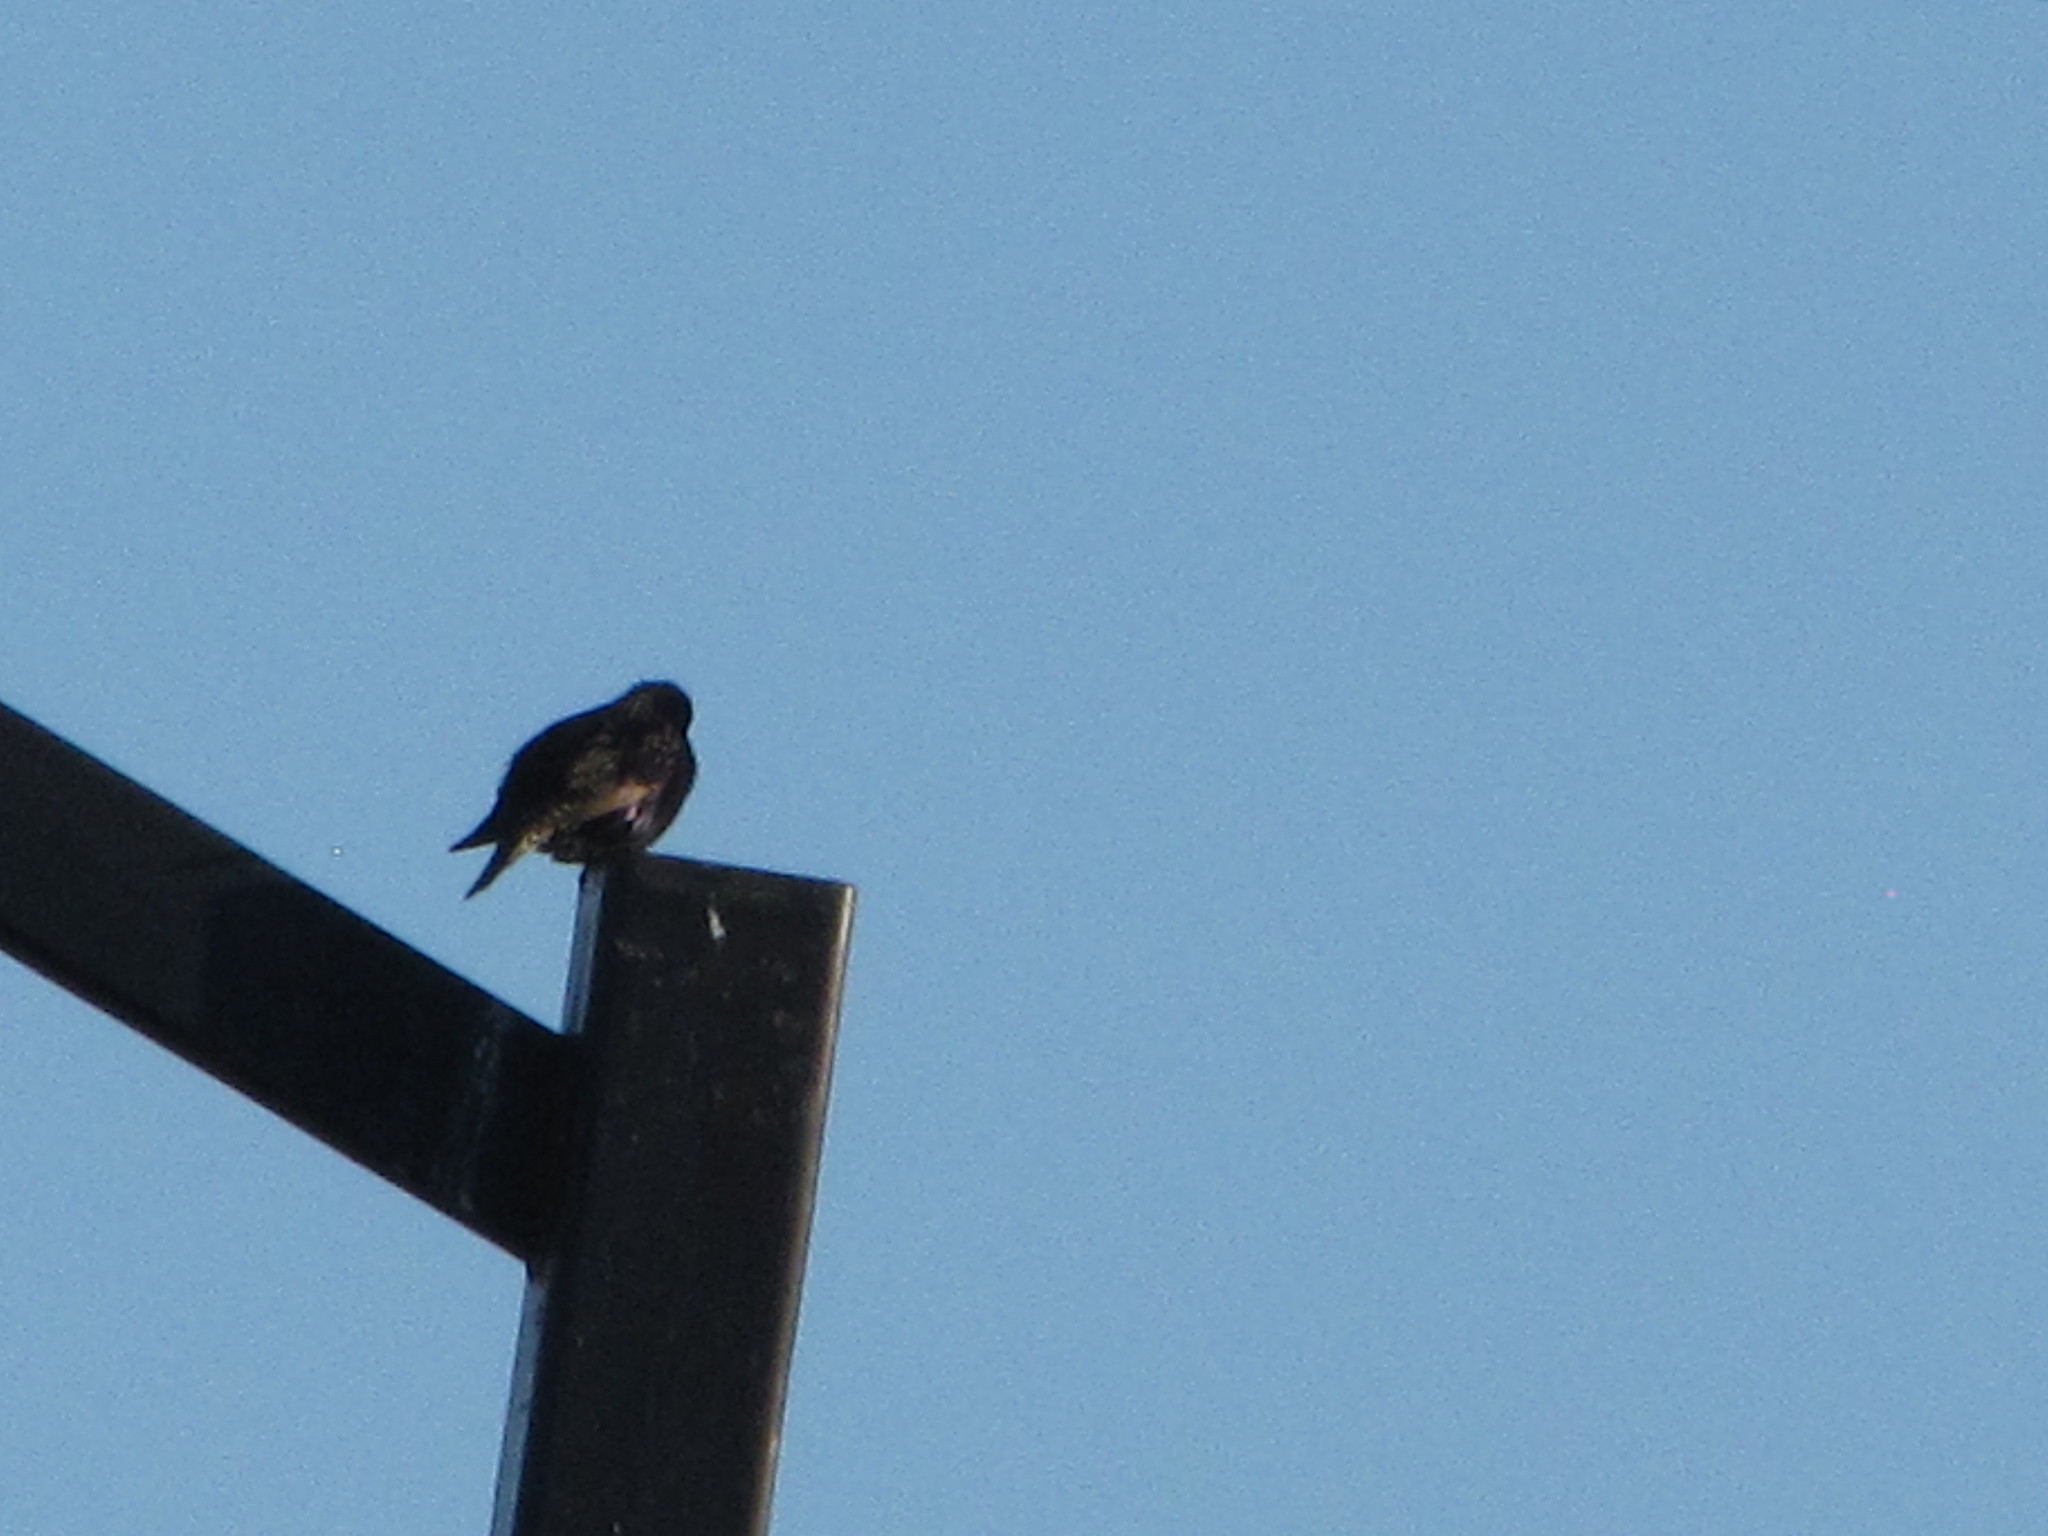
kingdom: Animalia
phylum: Chordata
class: Aves
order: Passeriformes
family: Sturnidae
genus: Sturnus
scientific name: Sturnus vulgaris
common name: Common starling
